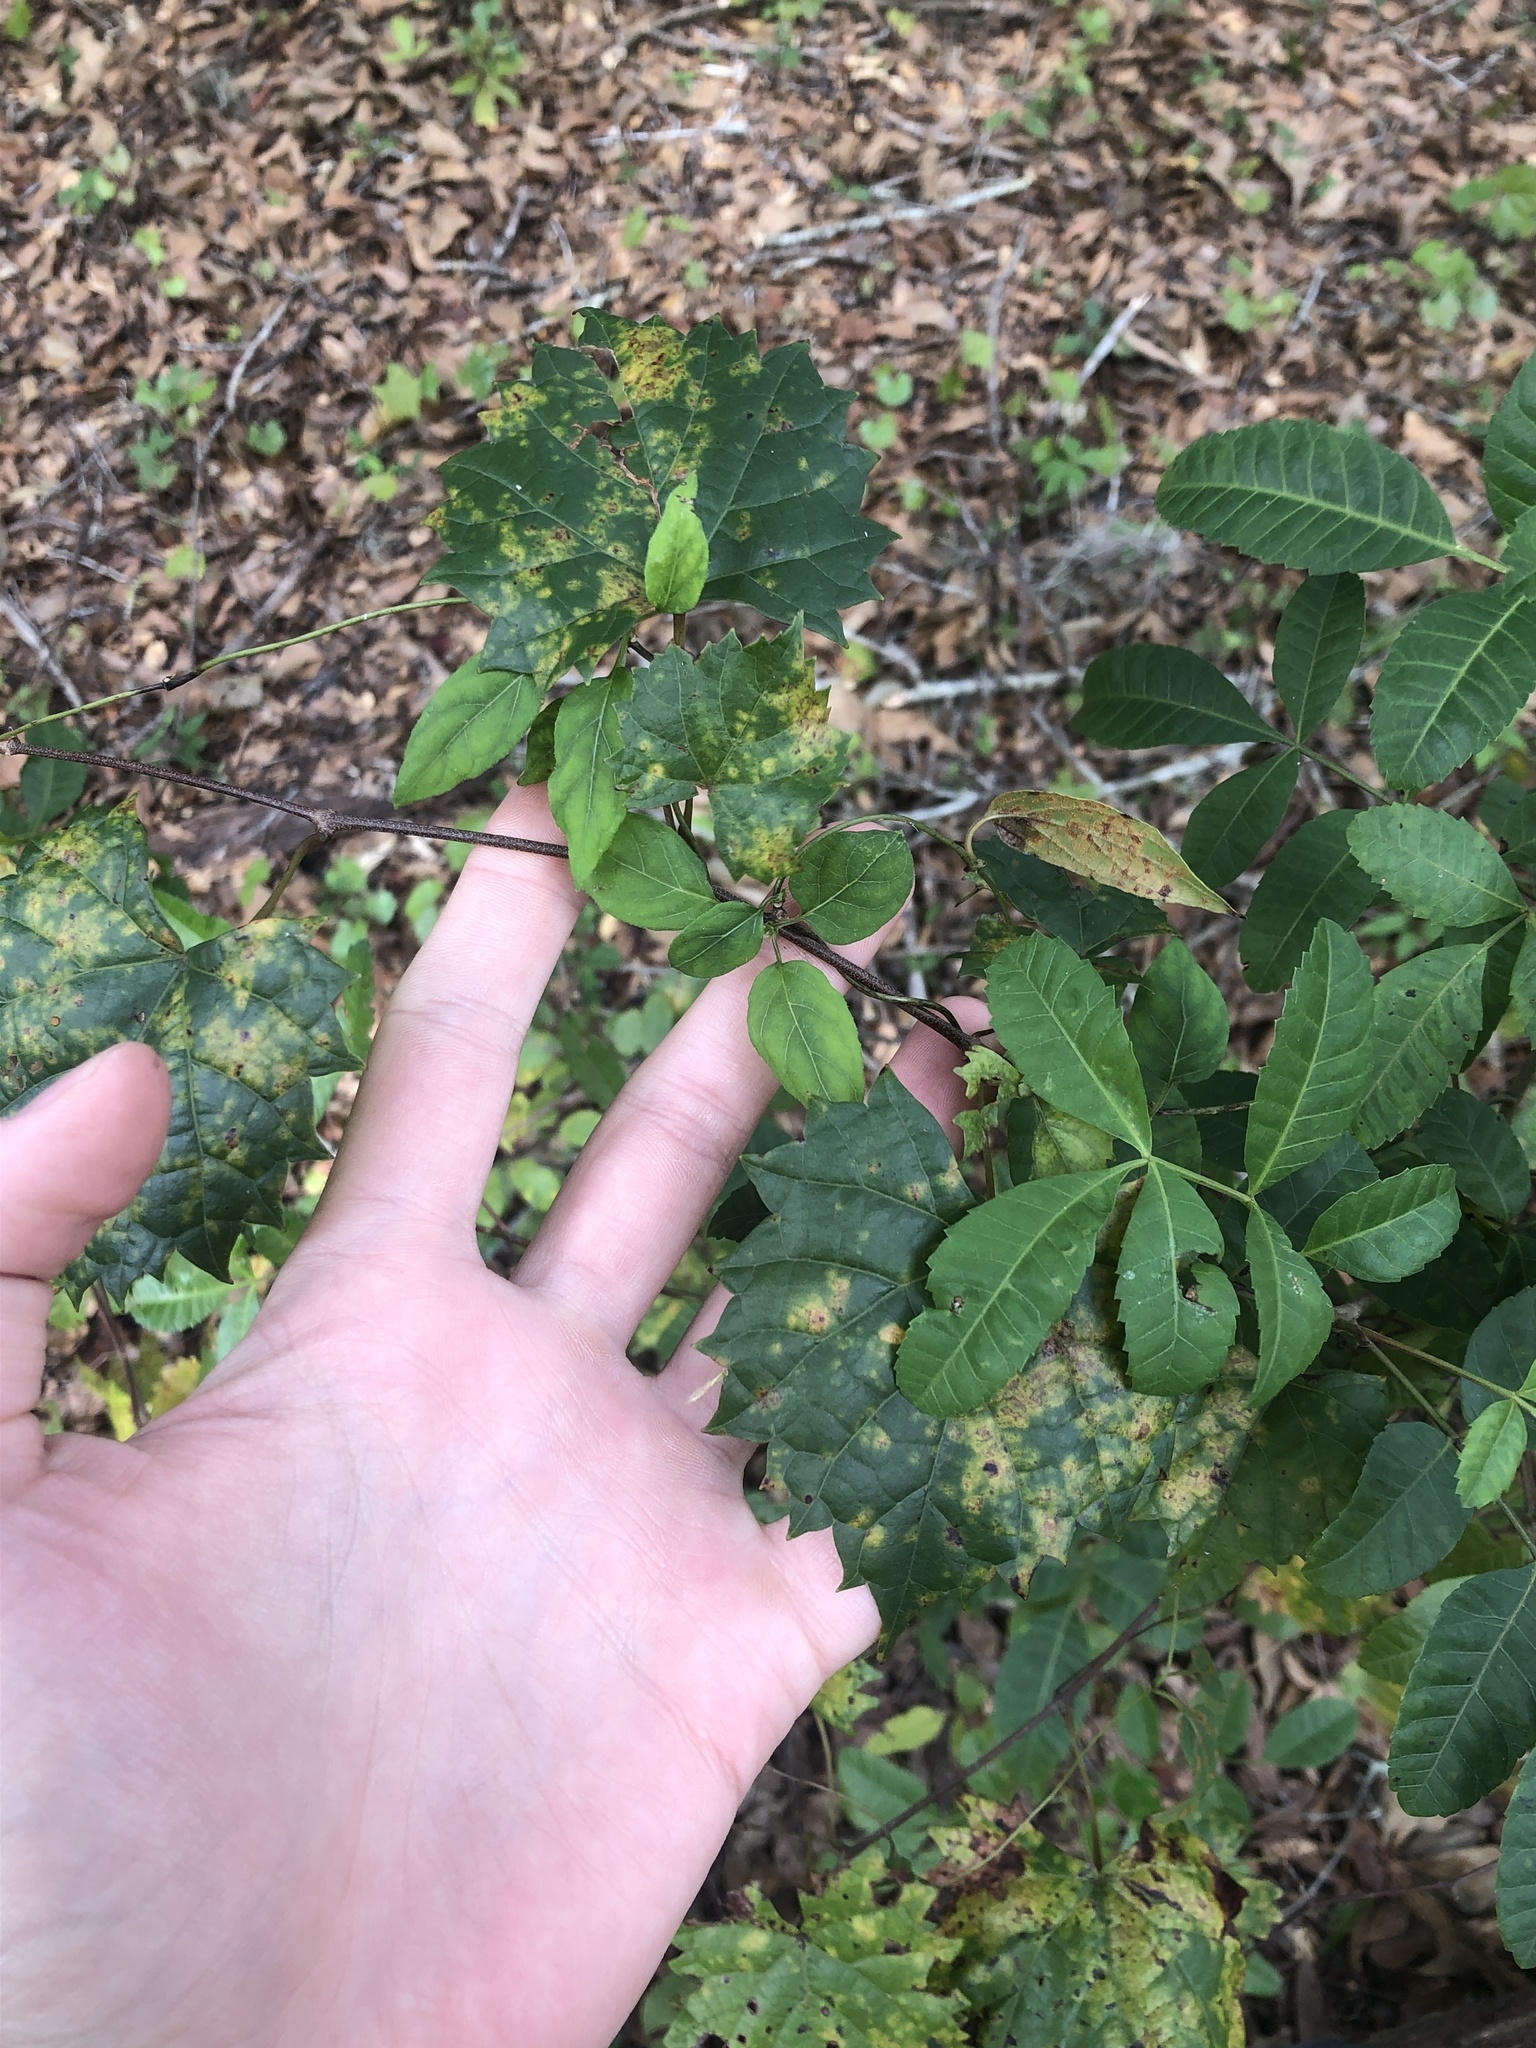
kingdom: Plantae
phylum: Tracheophyta
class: Magnoliopsida
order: Vitales
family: Vitaceae
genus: Vitis
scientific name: Vitis rotundifolia
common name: Muscadine grape
